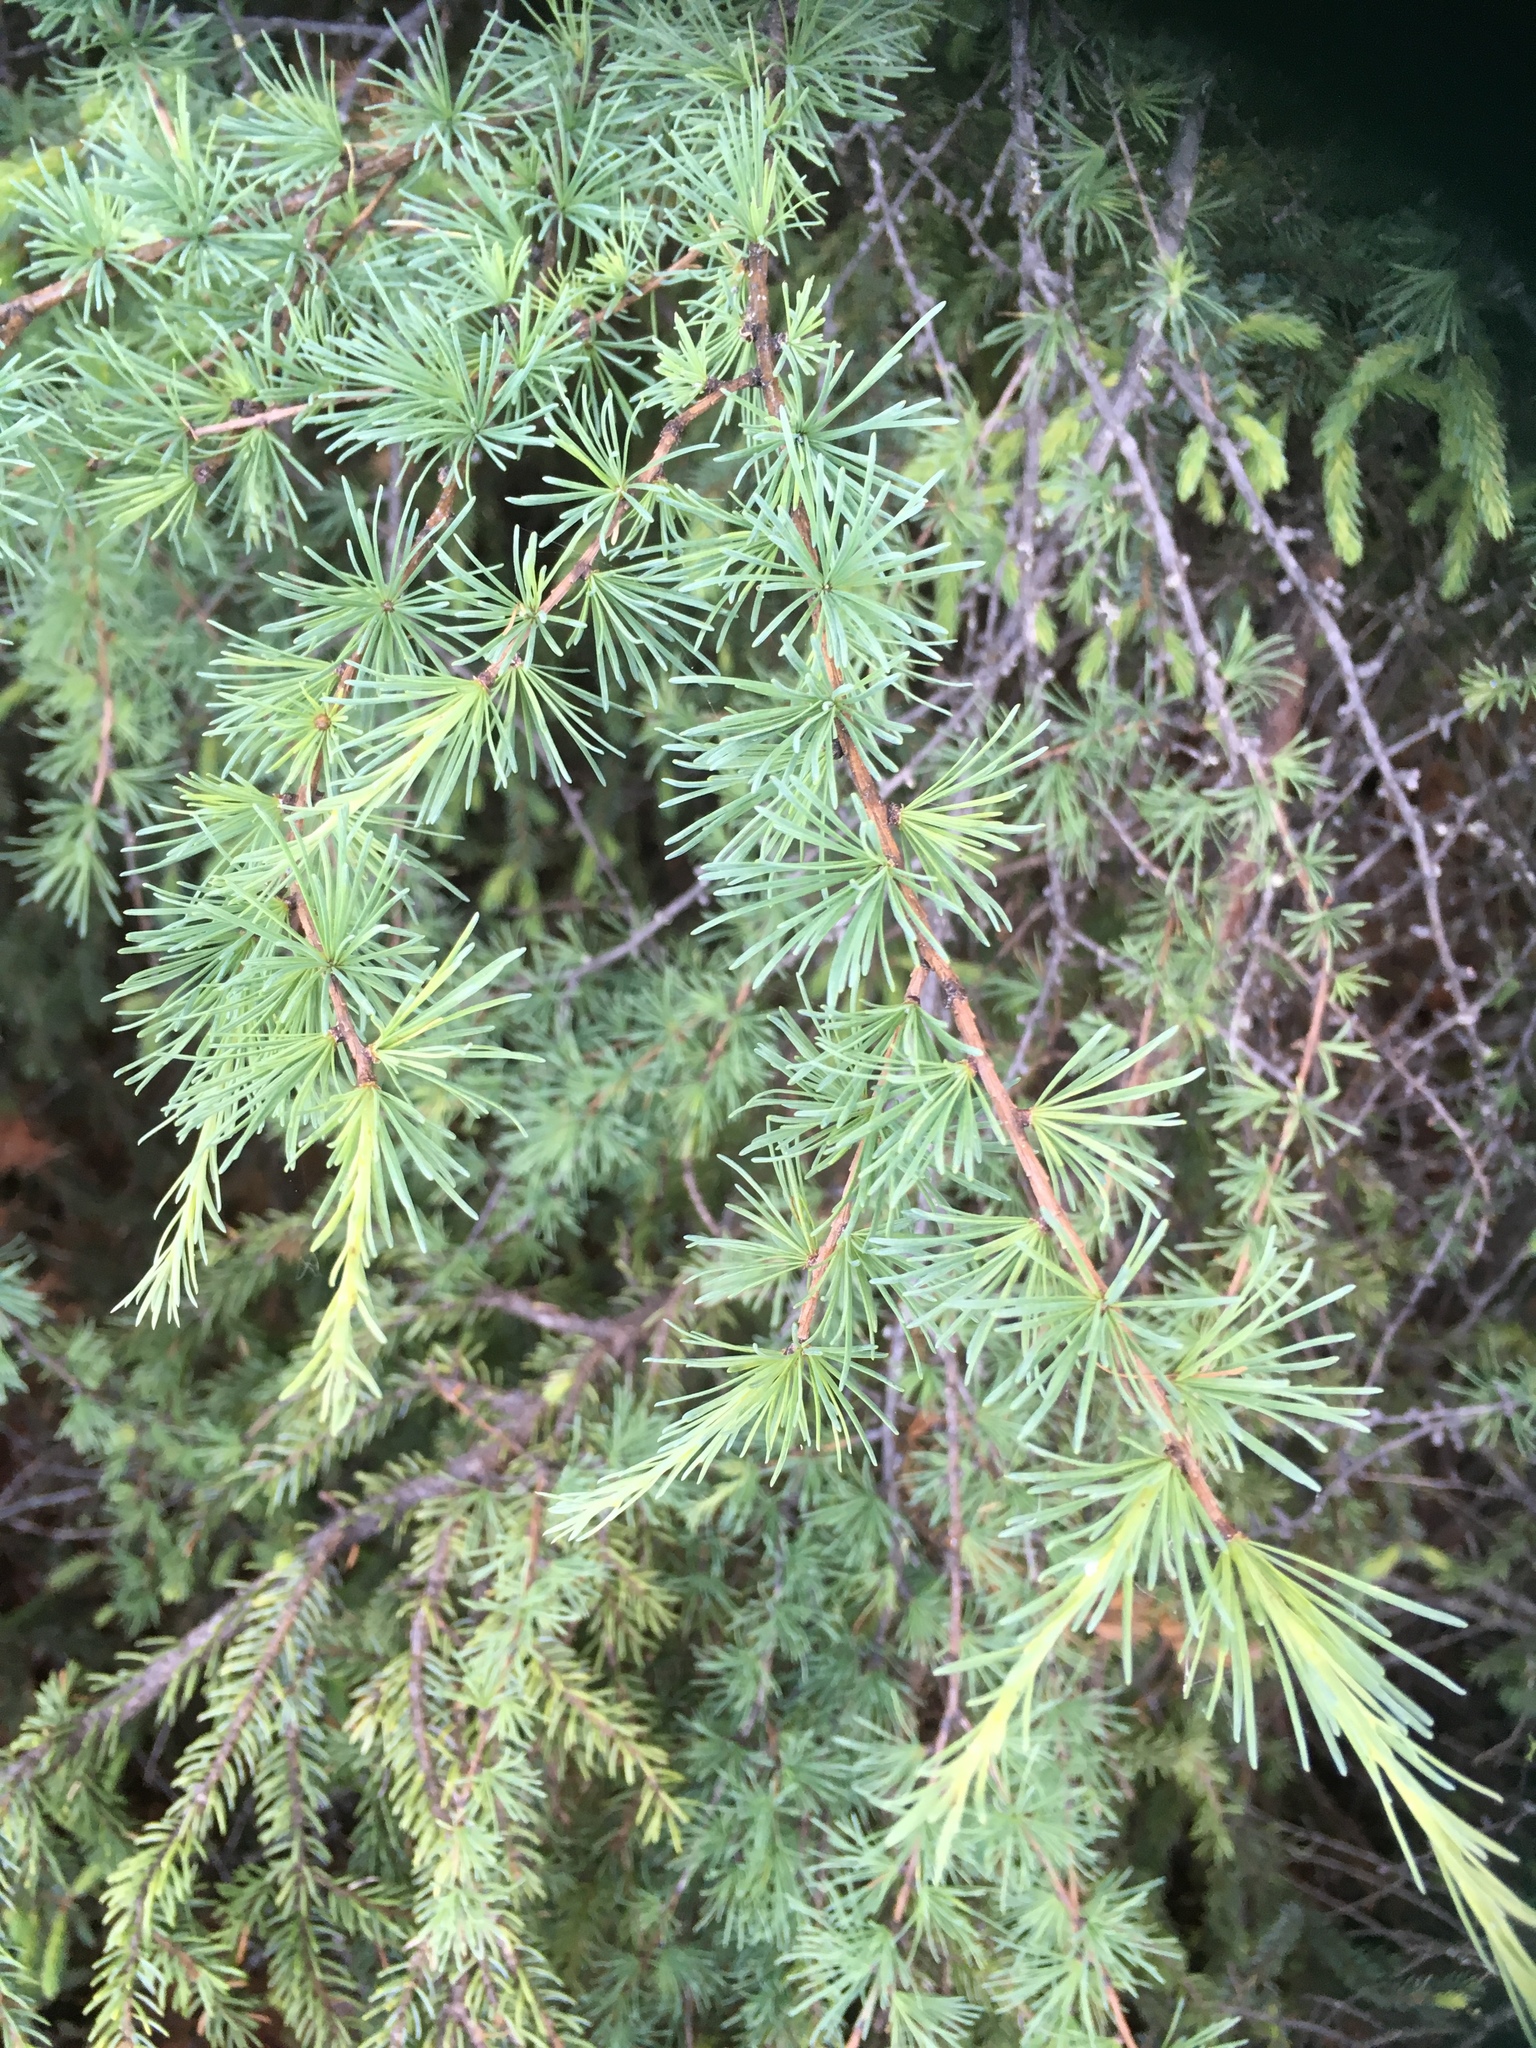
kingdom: Plantae
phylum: Tracheophyta
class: Pinopsida
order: Pinales
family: Pinaceae
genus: Larix
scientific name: Larix laricina
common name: American larch
